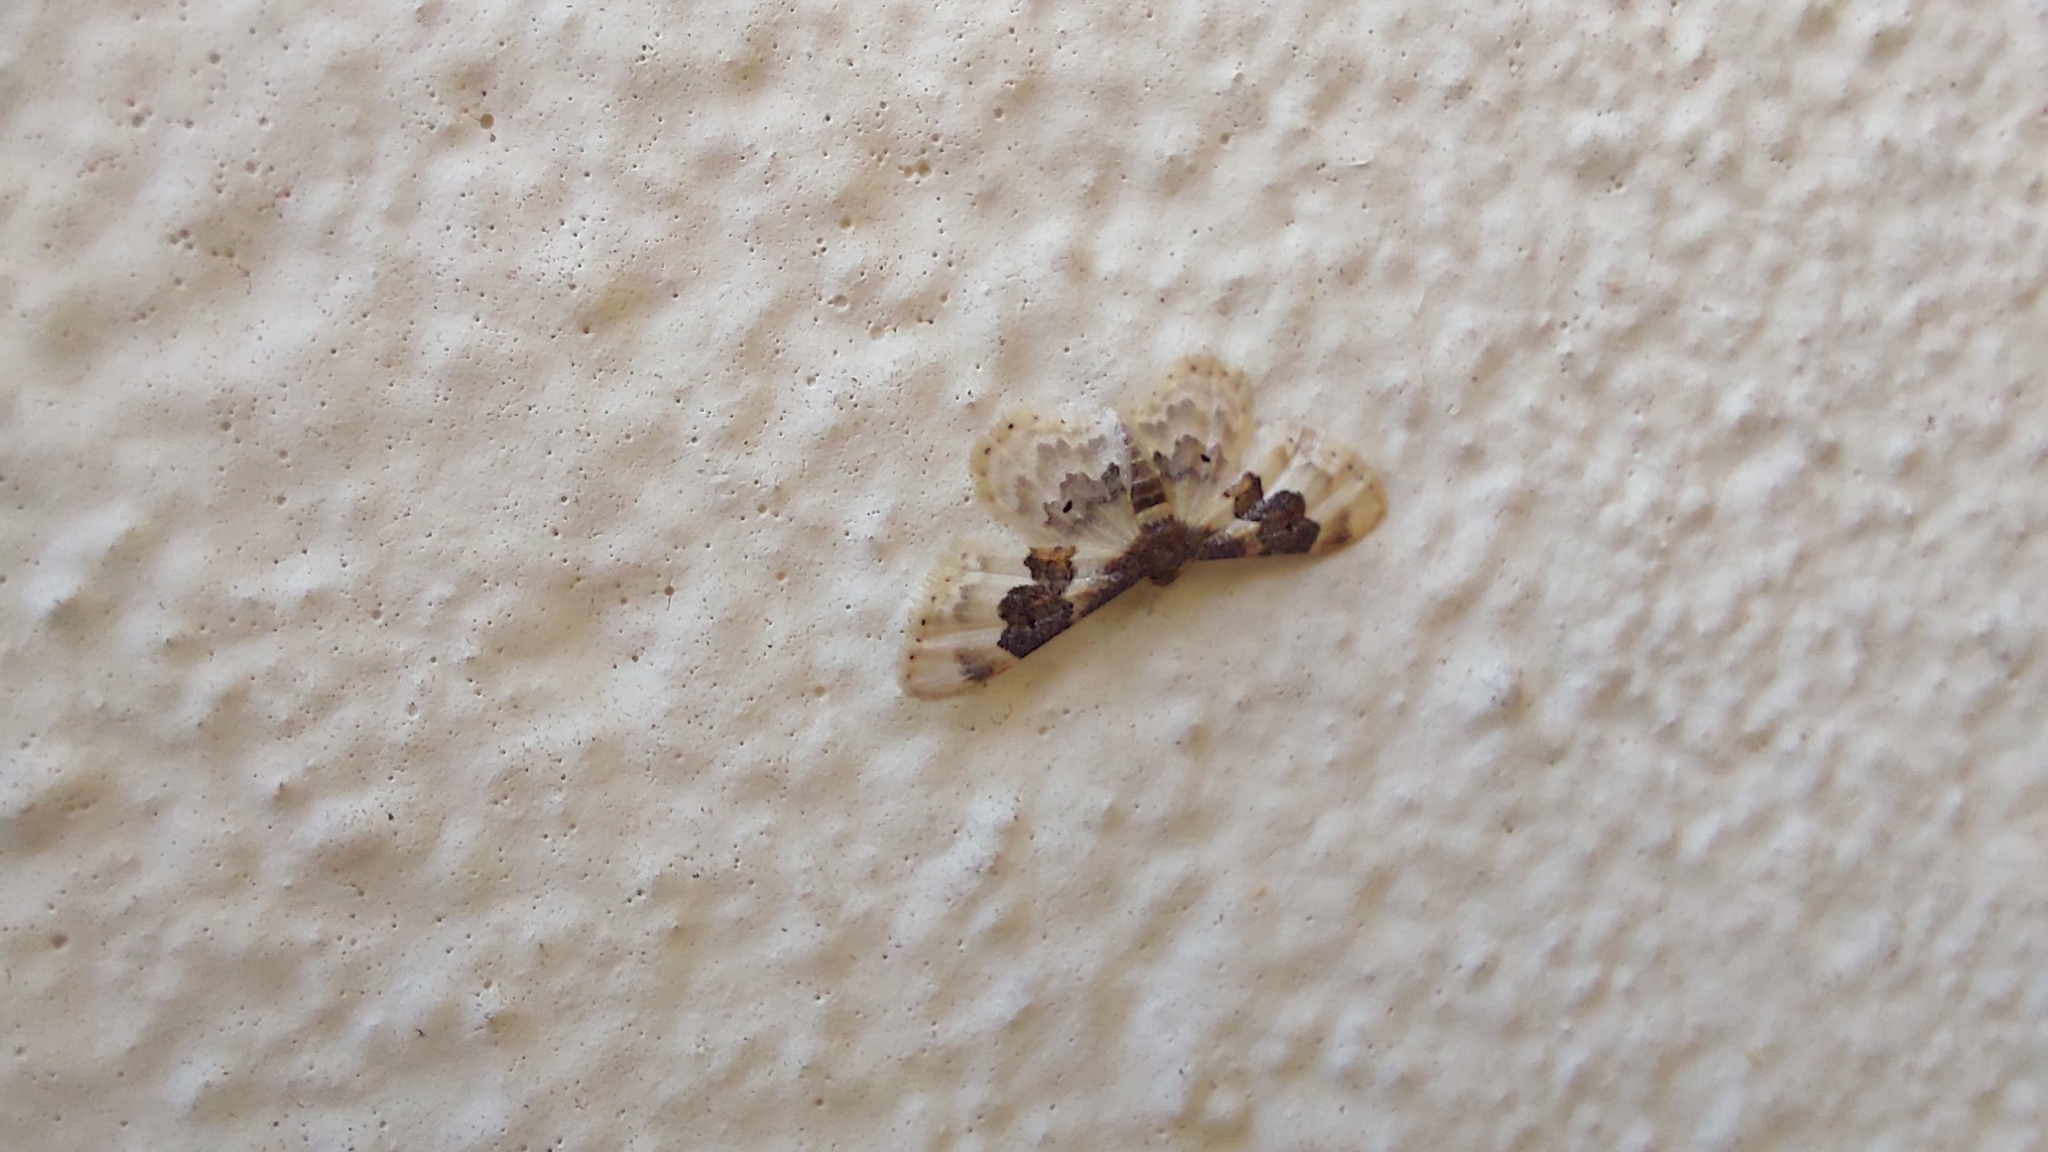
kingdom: Animalia
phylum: Arthropoda
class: Insecta
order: Lepidoptera
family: Geometridae
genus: Idaea
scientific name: Idaea rusticata
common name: Least carpet
